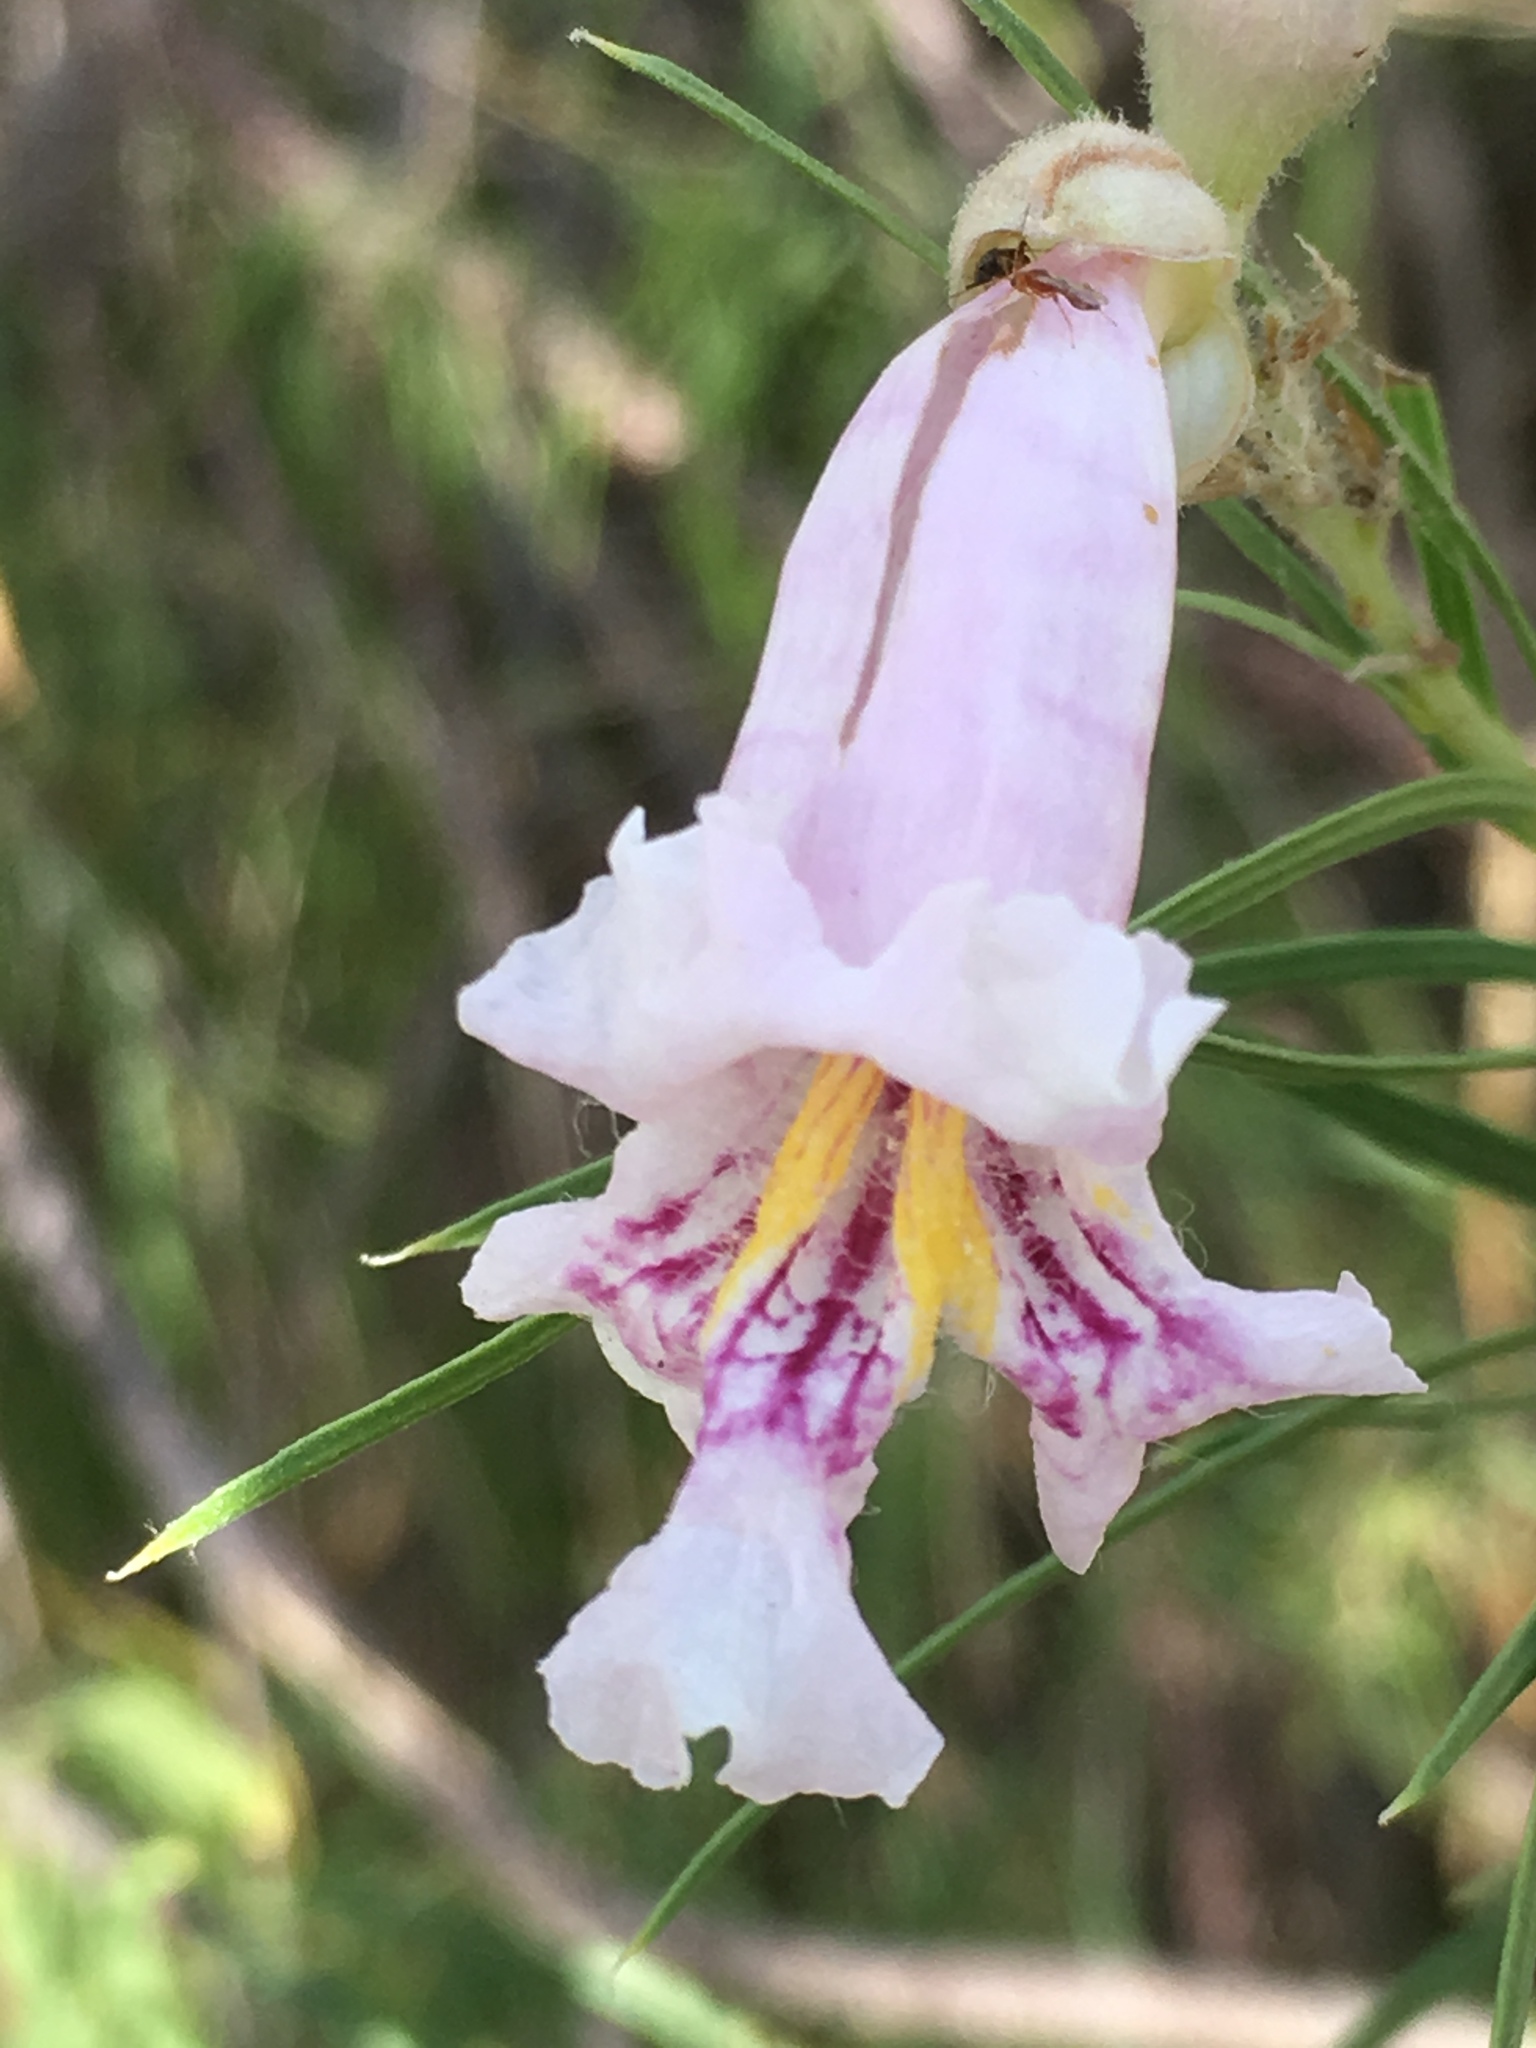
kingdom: Plantae
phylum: Tracheophyta
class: Magnoliopsida
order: Lamiales
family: Bignoniaceae
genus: Chilopsis
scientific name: Chilopsis linearis
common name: Desert-willow
